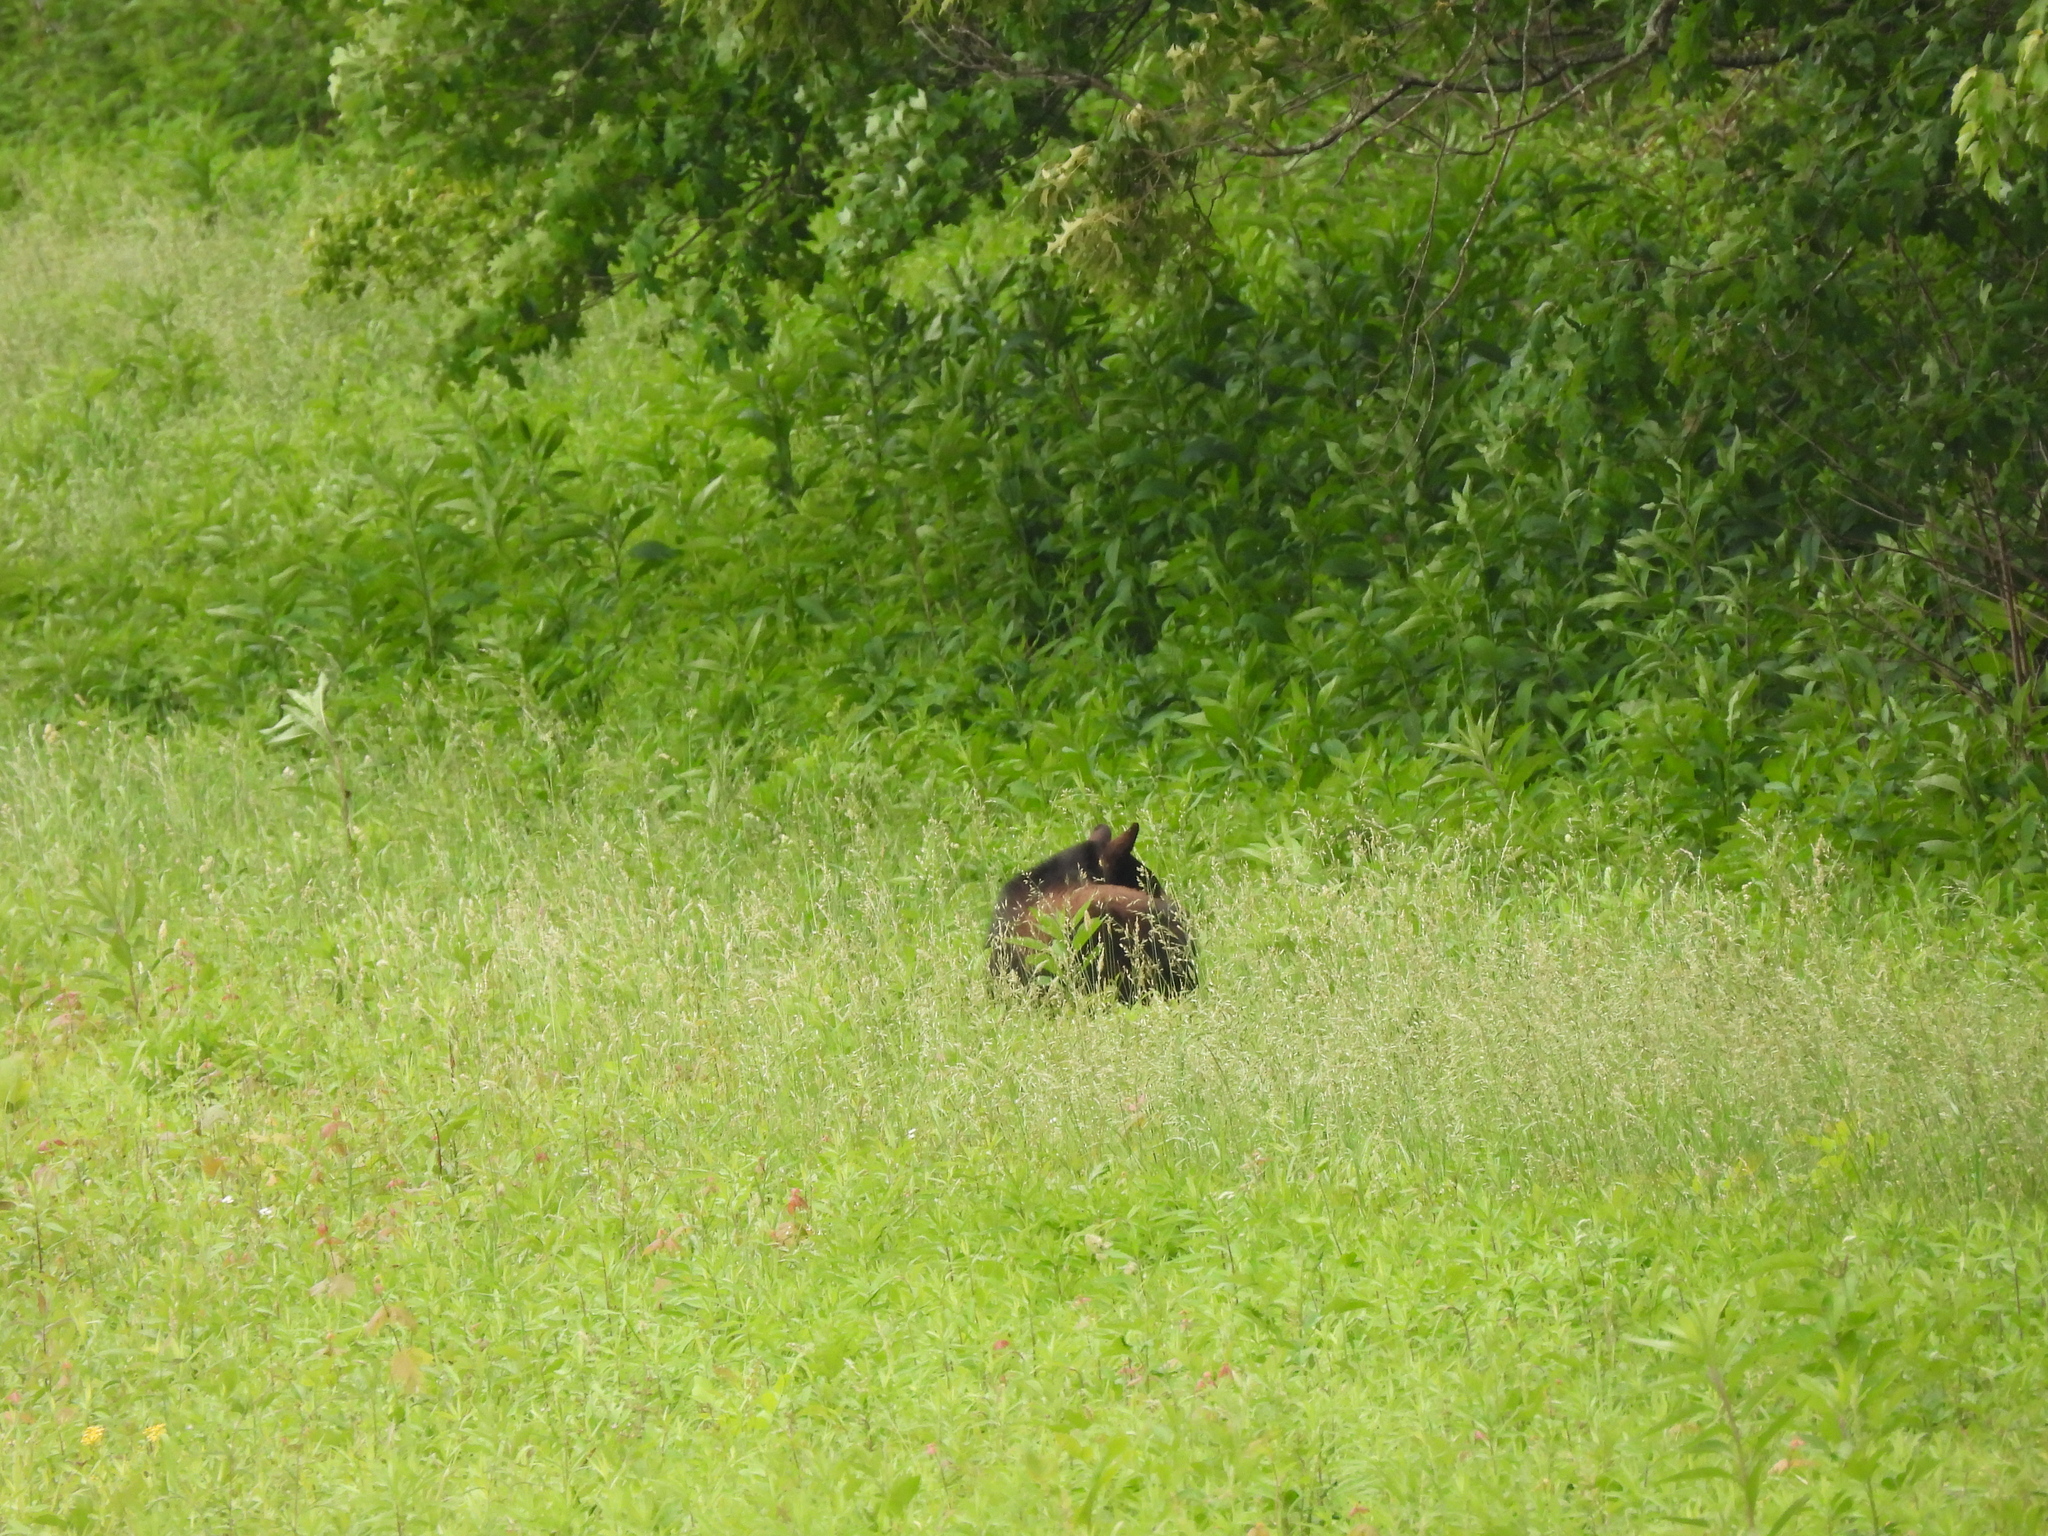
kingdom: Animalia
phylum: Chordata
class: Mammalia
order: Carnivora
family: Ursidae
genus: Ursus
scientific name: Ursus americanus
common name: American black bear
